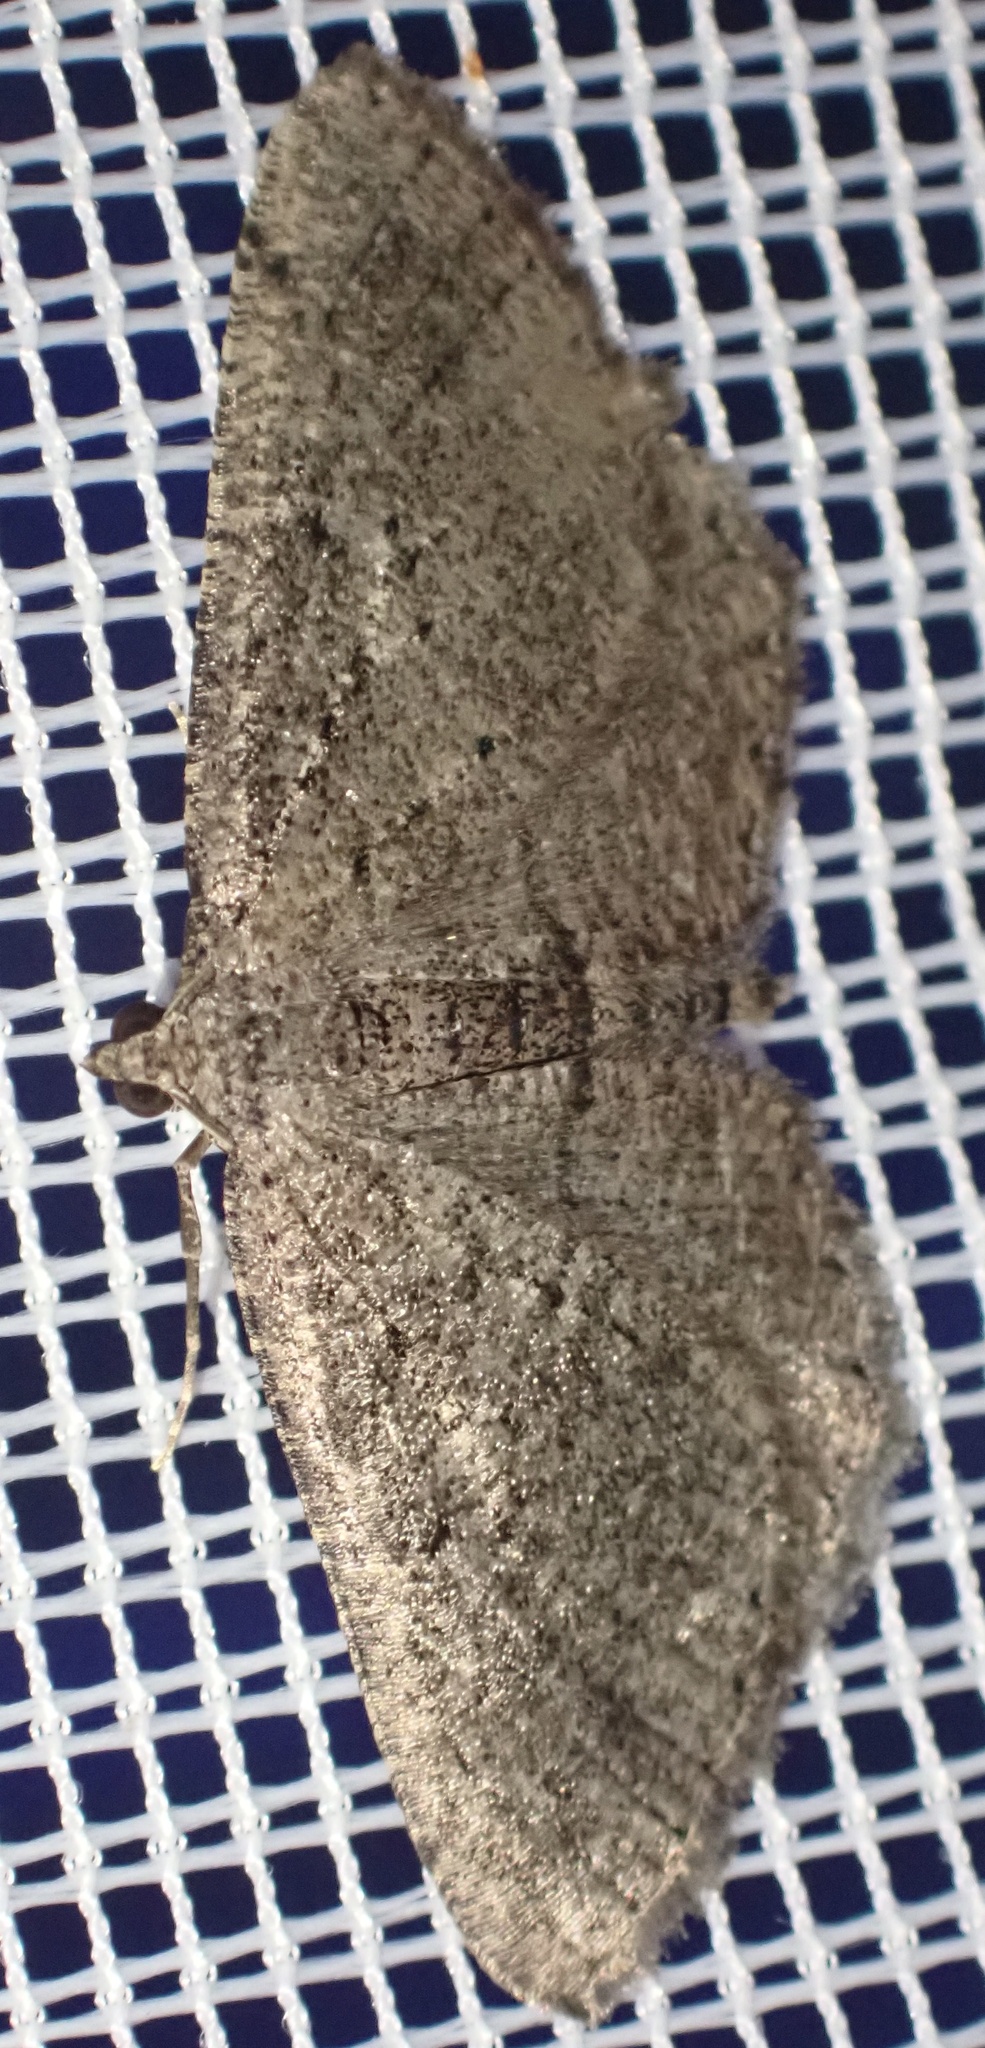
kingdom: Animalia
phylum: Arthropoda
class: Insecta
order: Lepidoptera
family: Geometridae
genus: Rhoptria
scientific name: Rhoptria asperaria
